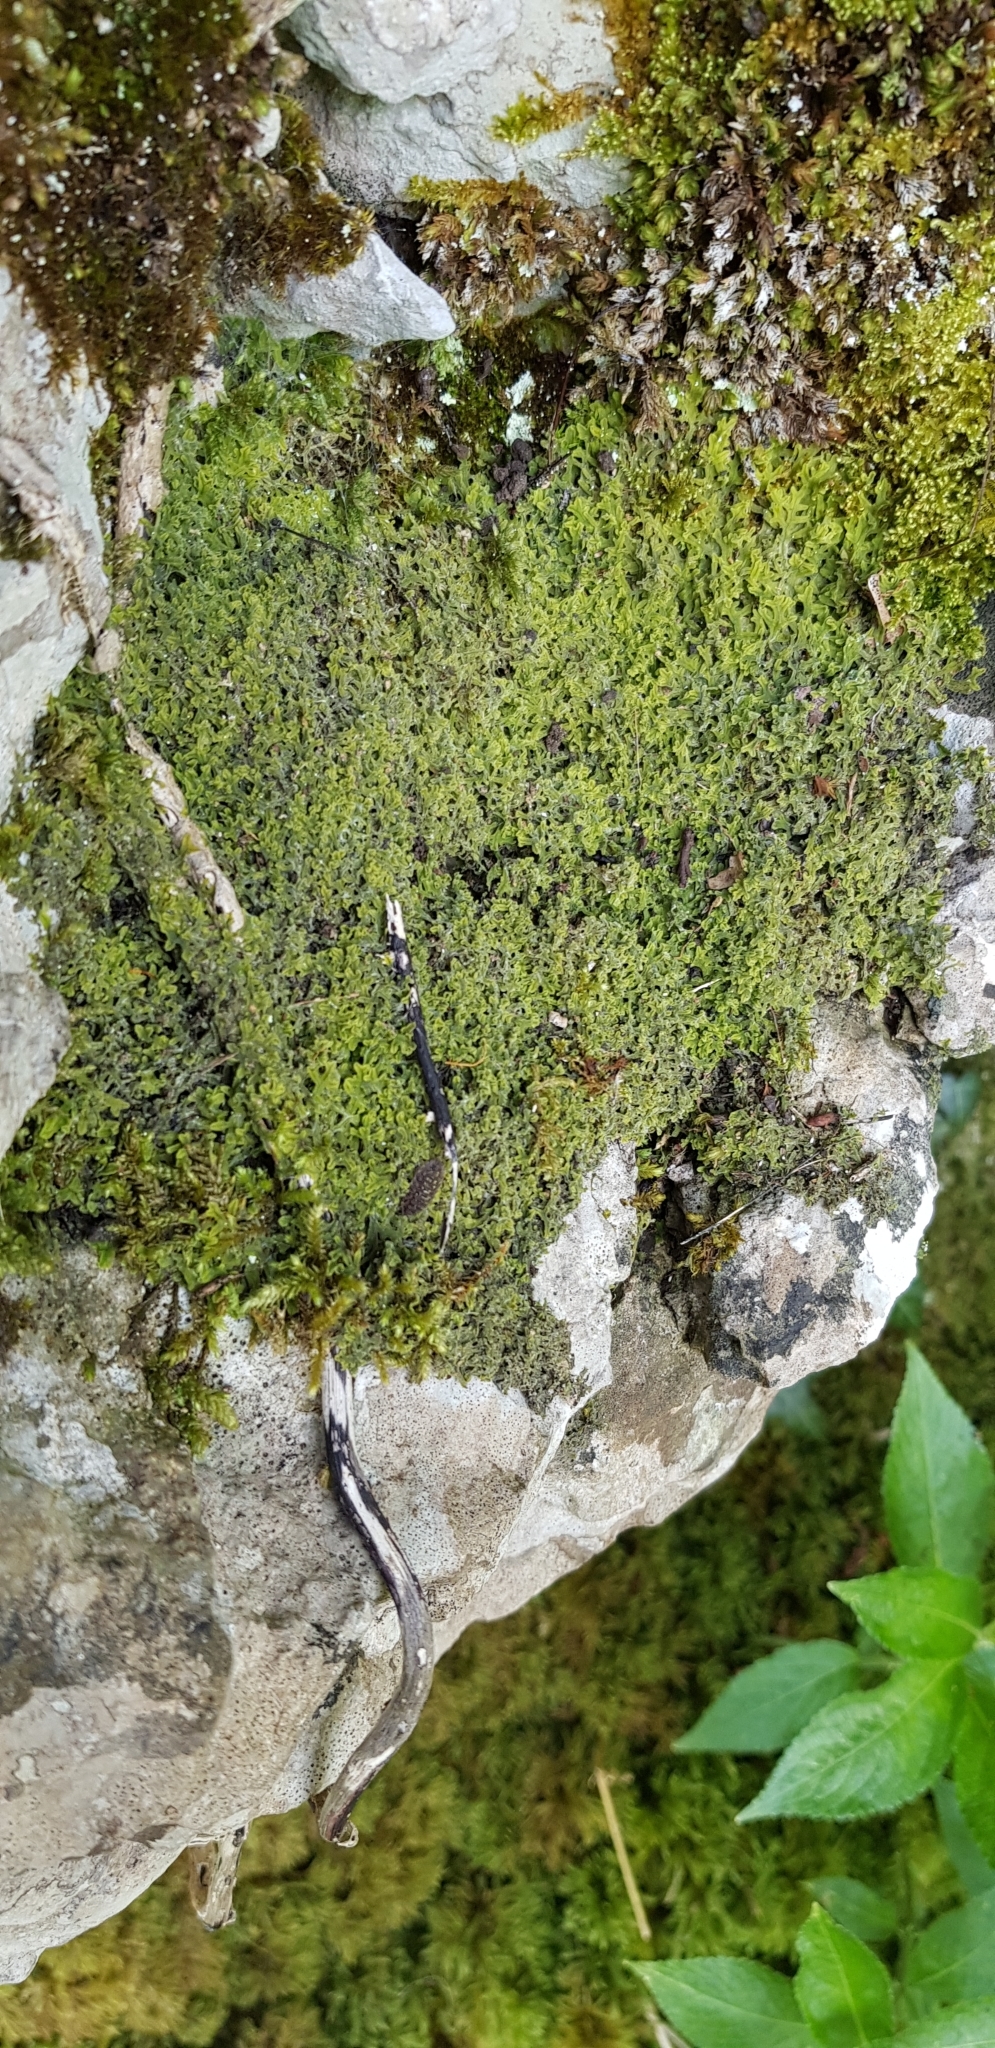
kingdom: Plantae
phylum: Marchantiophyta
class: Jungermanniopsida
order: Metzgeriales
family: Metzgeriaceae
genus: Metzgeria
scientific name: Metzgeria pubescens
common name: Downy veilwort
